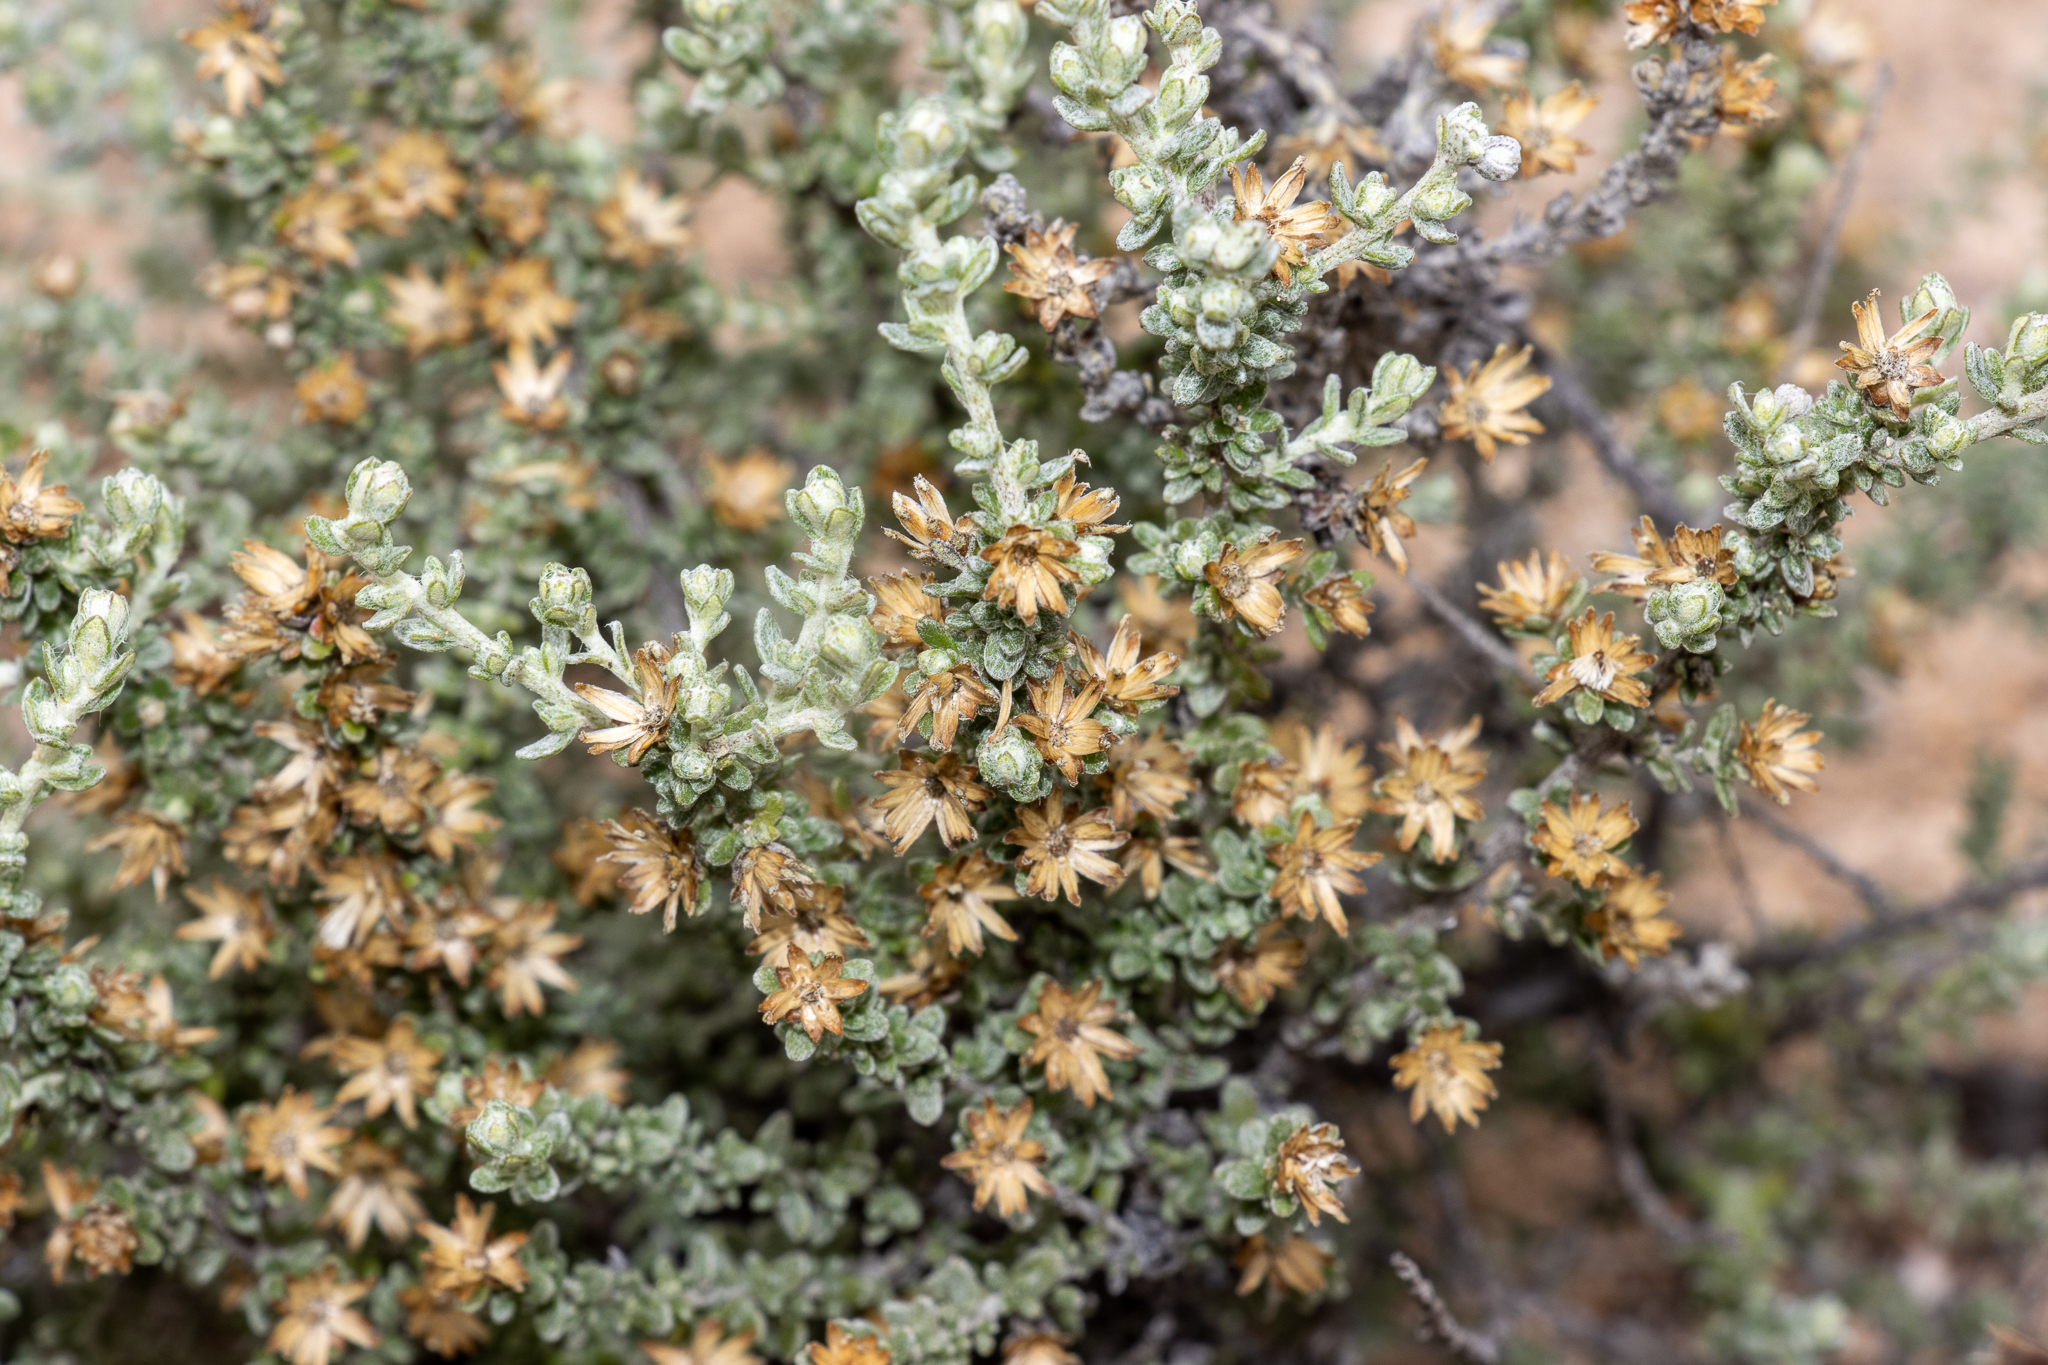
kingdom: Plantae
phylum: Tracheophyta
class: Magnoliopsida
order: Asterales
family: Asteraceae
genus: Olearia
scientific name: Olearia minor
